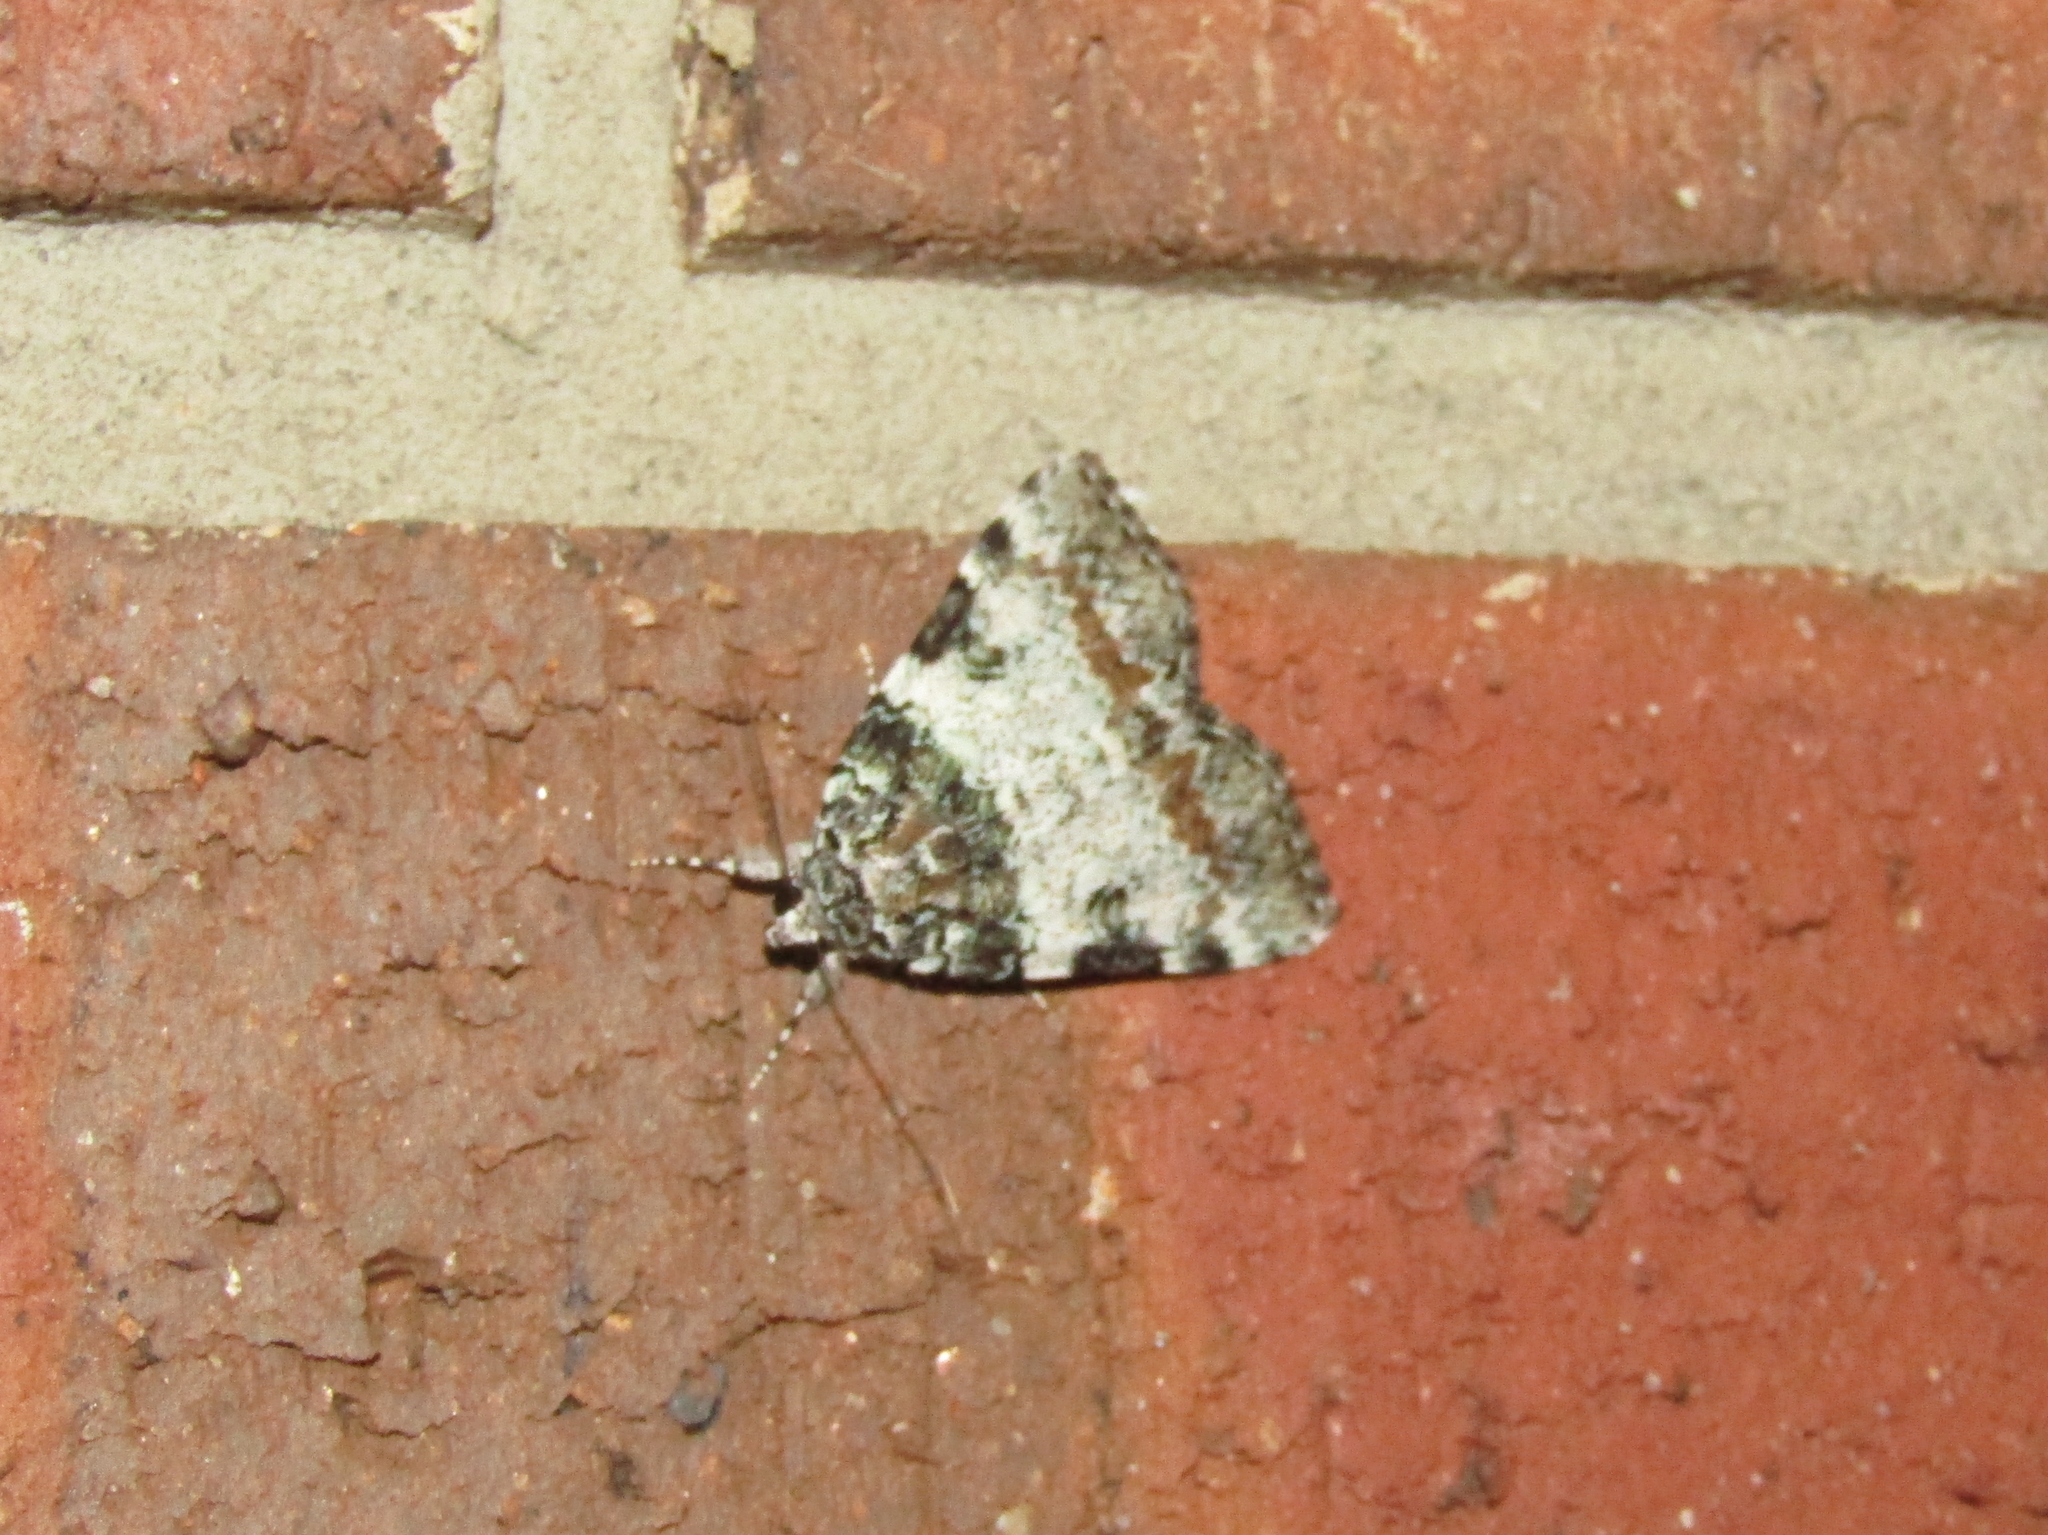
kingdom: Animalia
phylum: Arthropoda
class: Insecta
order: Lepidoptera
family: Erebidae
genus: Catocala
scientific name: Catocala connubialis
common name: Connubial underwing
